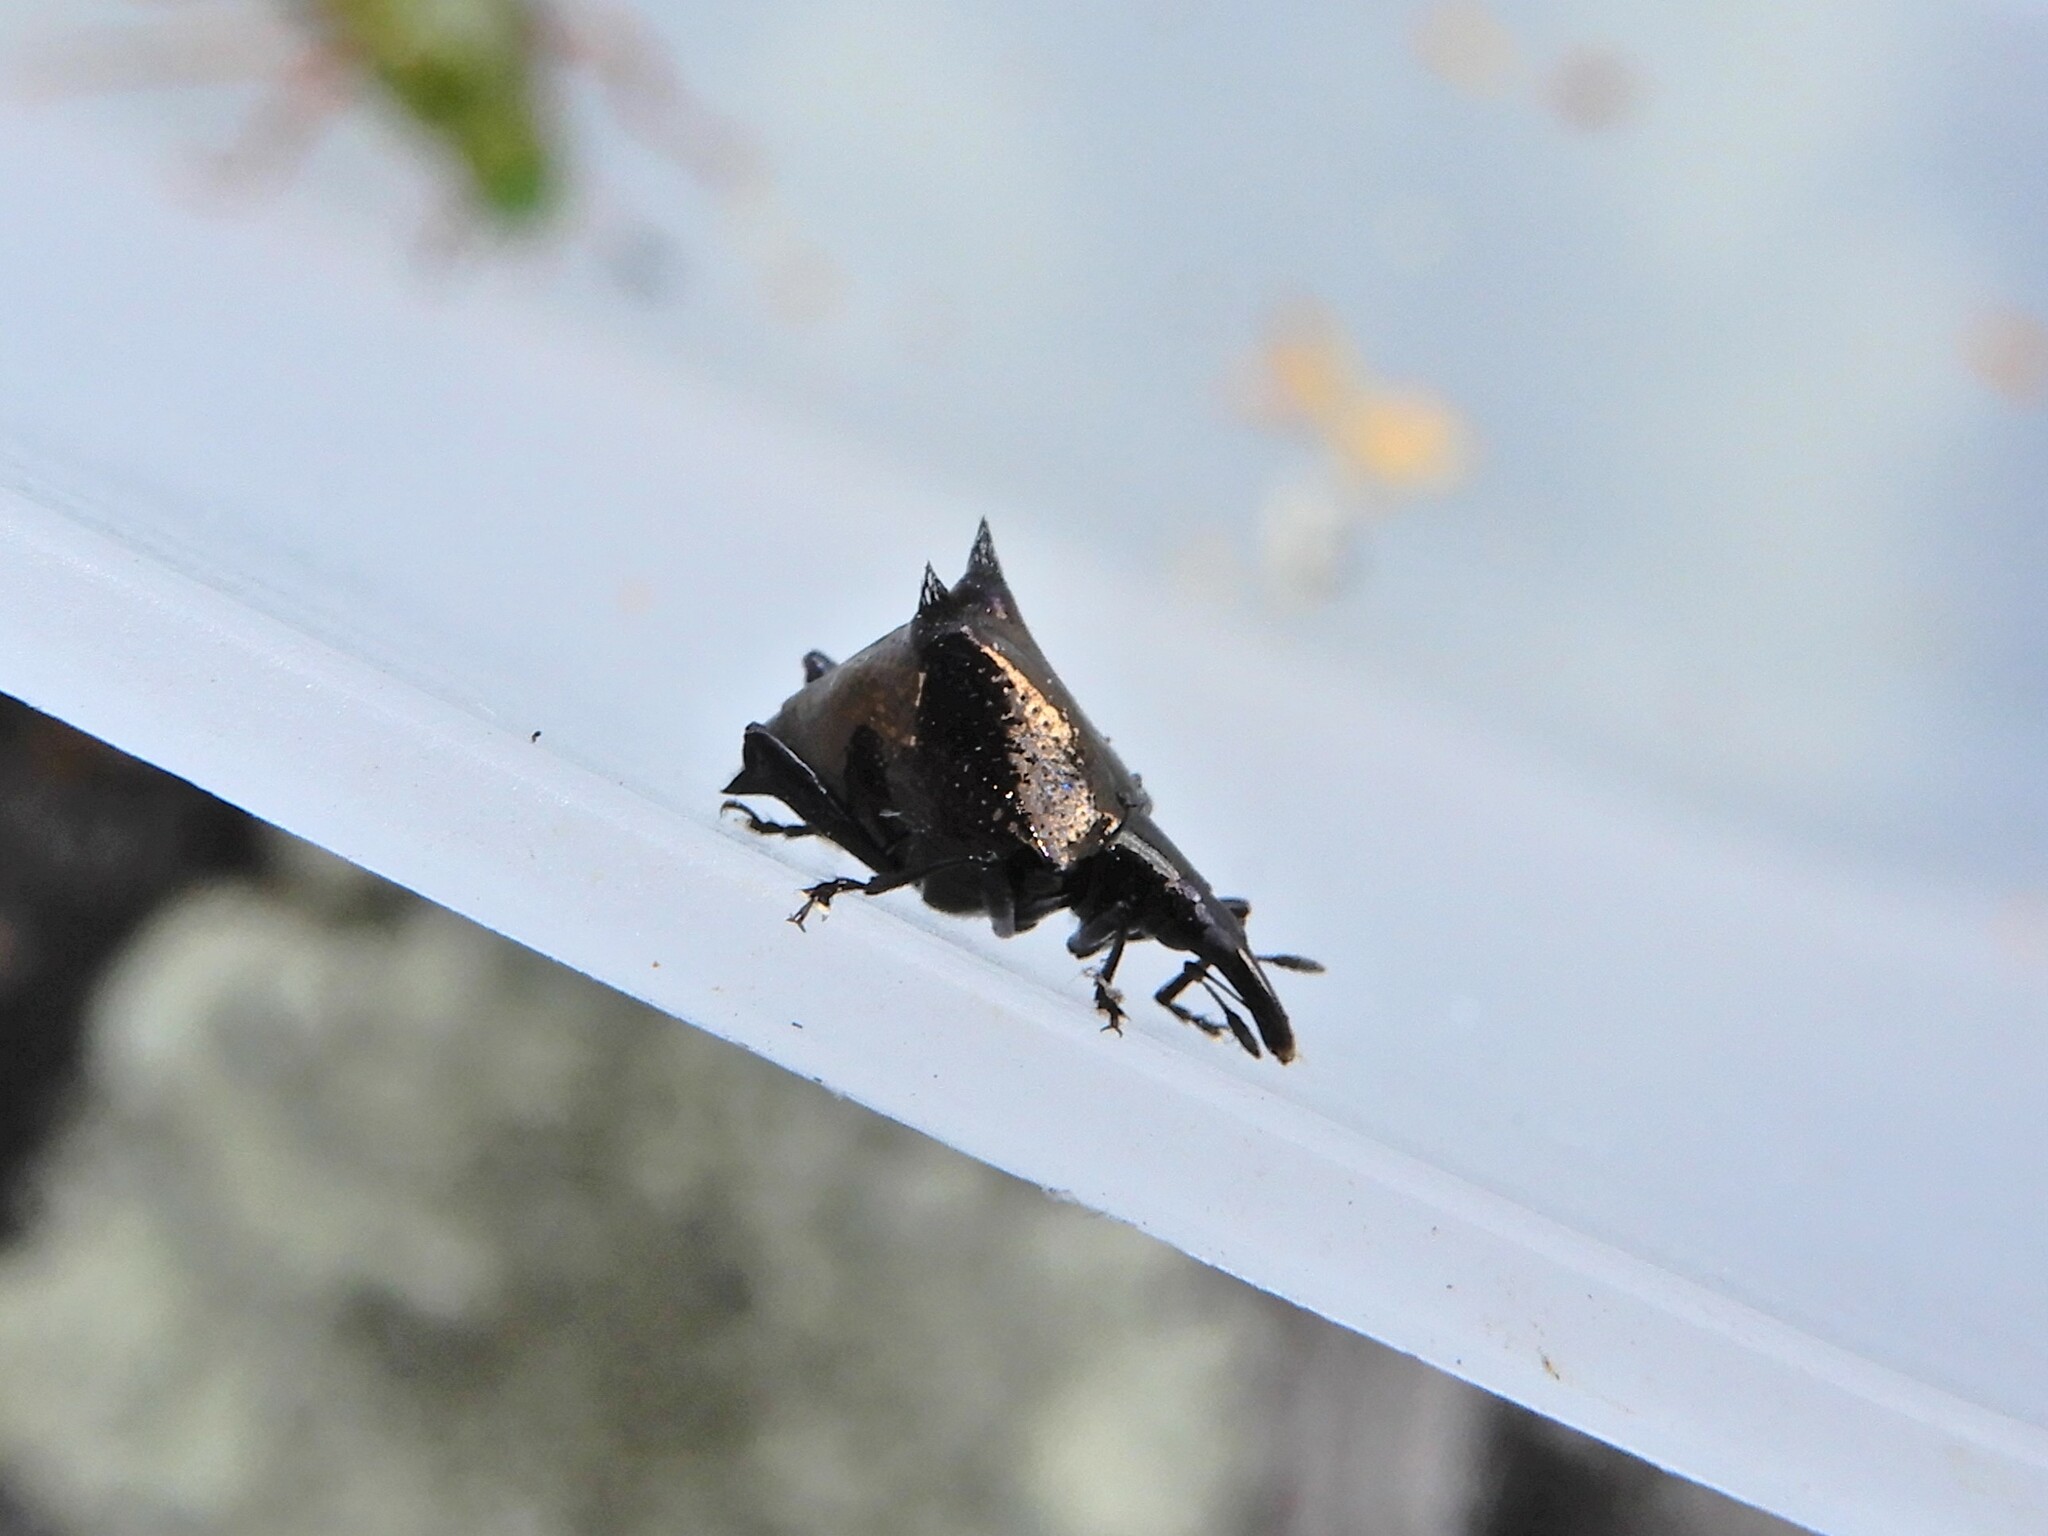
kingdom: Animalia
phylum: Arthropoda
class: Insecta
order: Coleoptera
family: Curculionidae
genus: Scolopterus
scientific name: Scolopterus penicillatus
